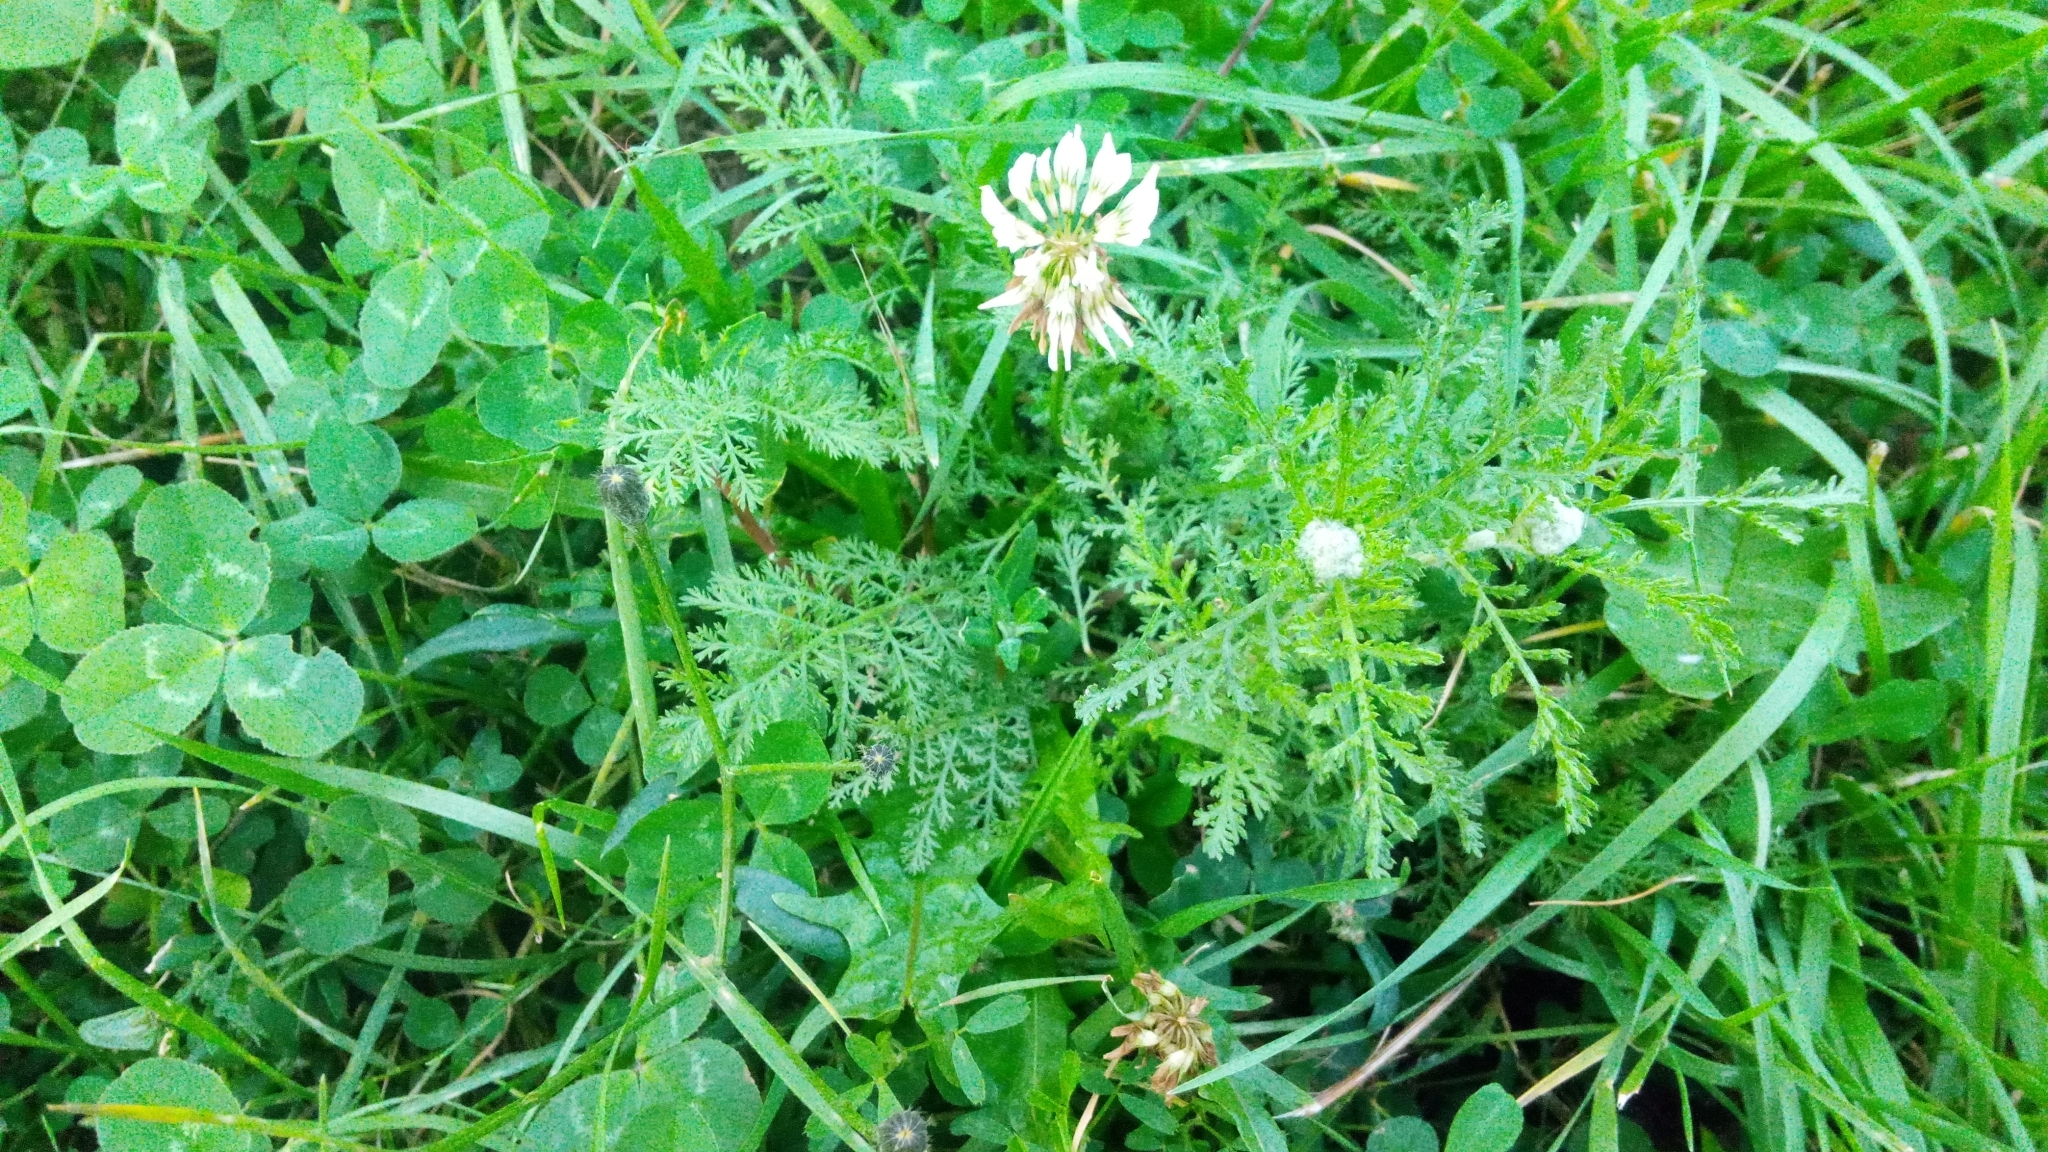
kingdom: Plantae
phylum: Tracheophyta
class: Magnoliopsida
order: Asterales
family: Asteraceae
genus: Cota
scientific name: Cota tinctoria
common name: Golden chamomile
